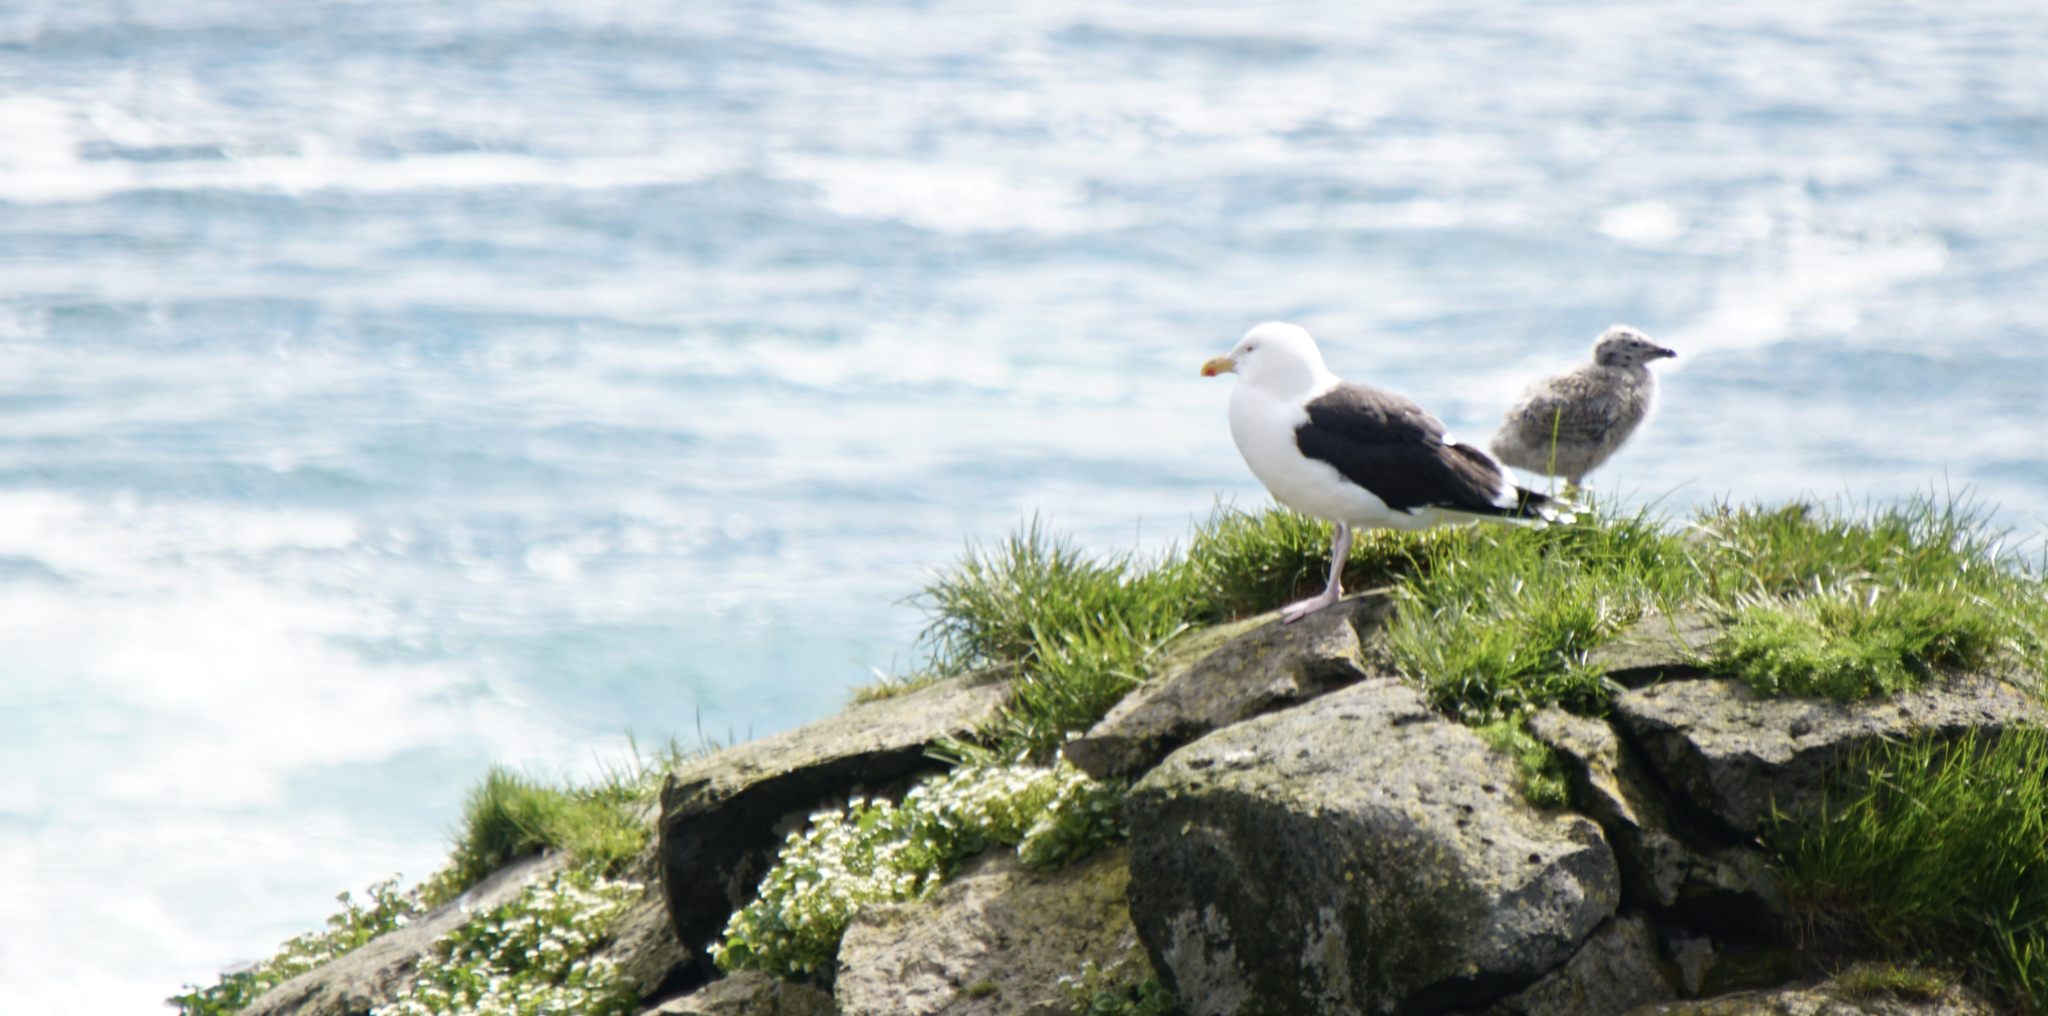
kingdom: Animalia
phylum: Chordata
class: Aves
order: Charadriiformes
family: Laridae
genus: Larus
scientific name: Larus marinus
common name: Great black-backed gull
